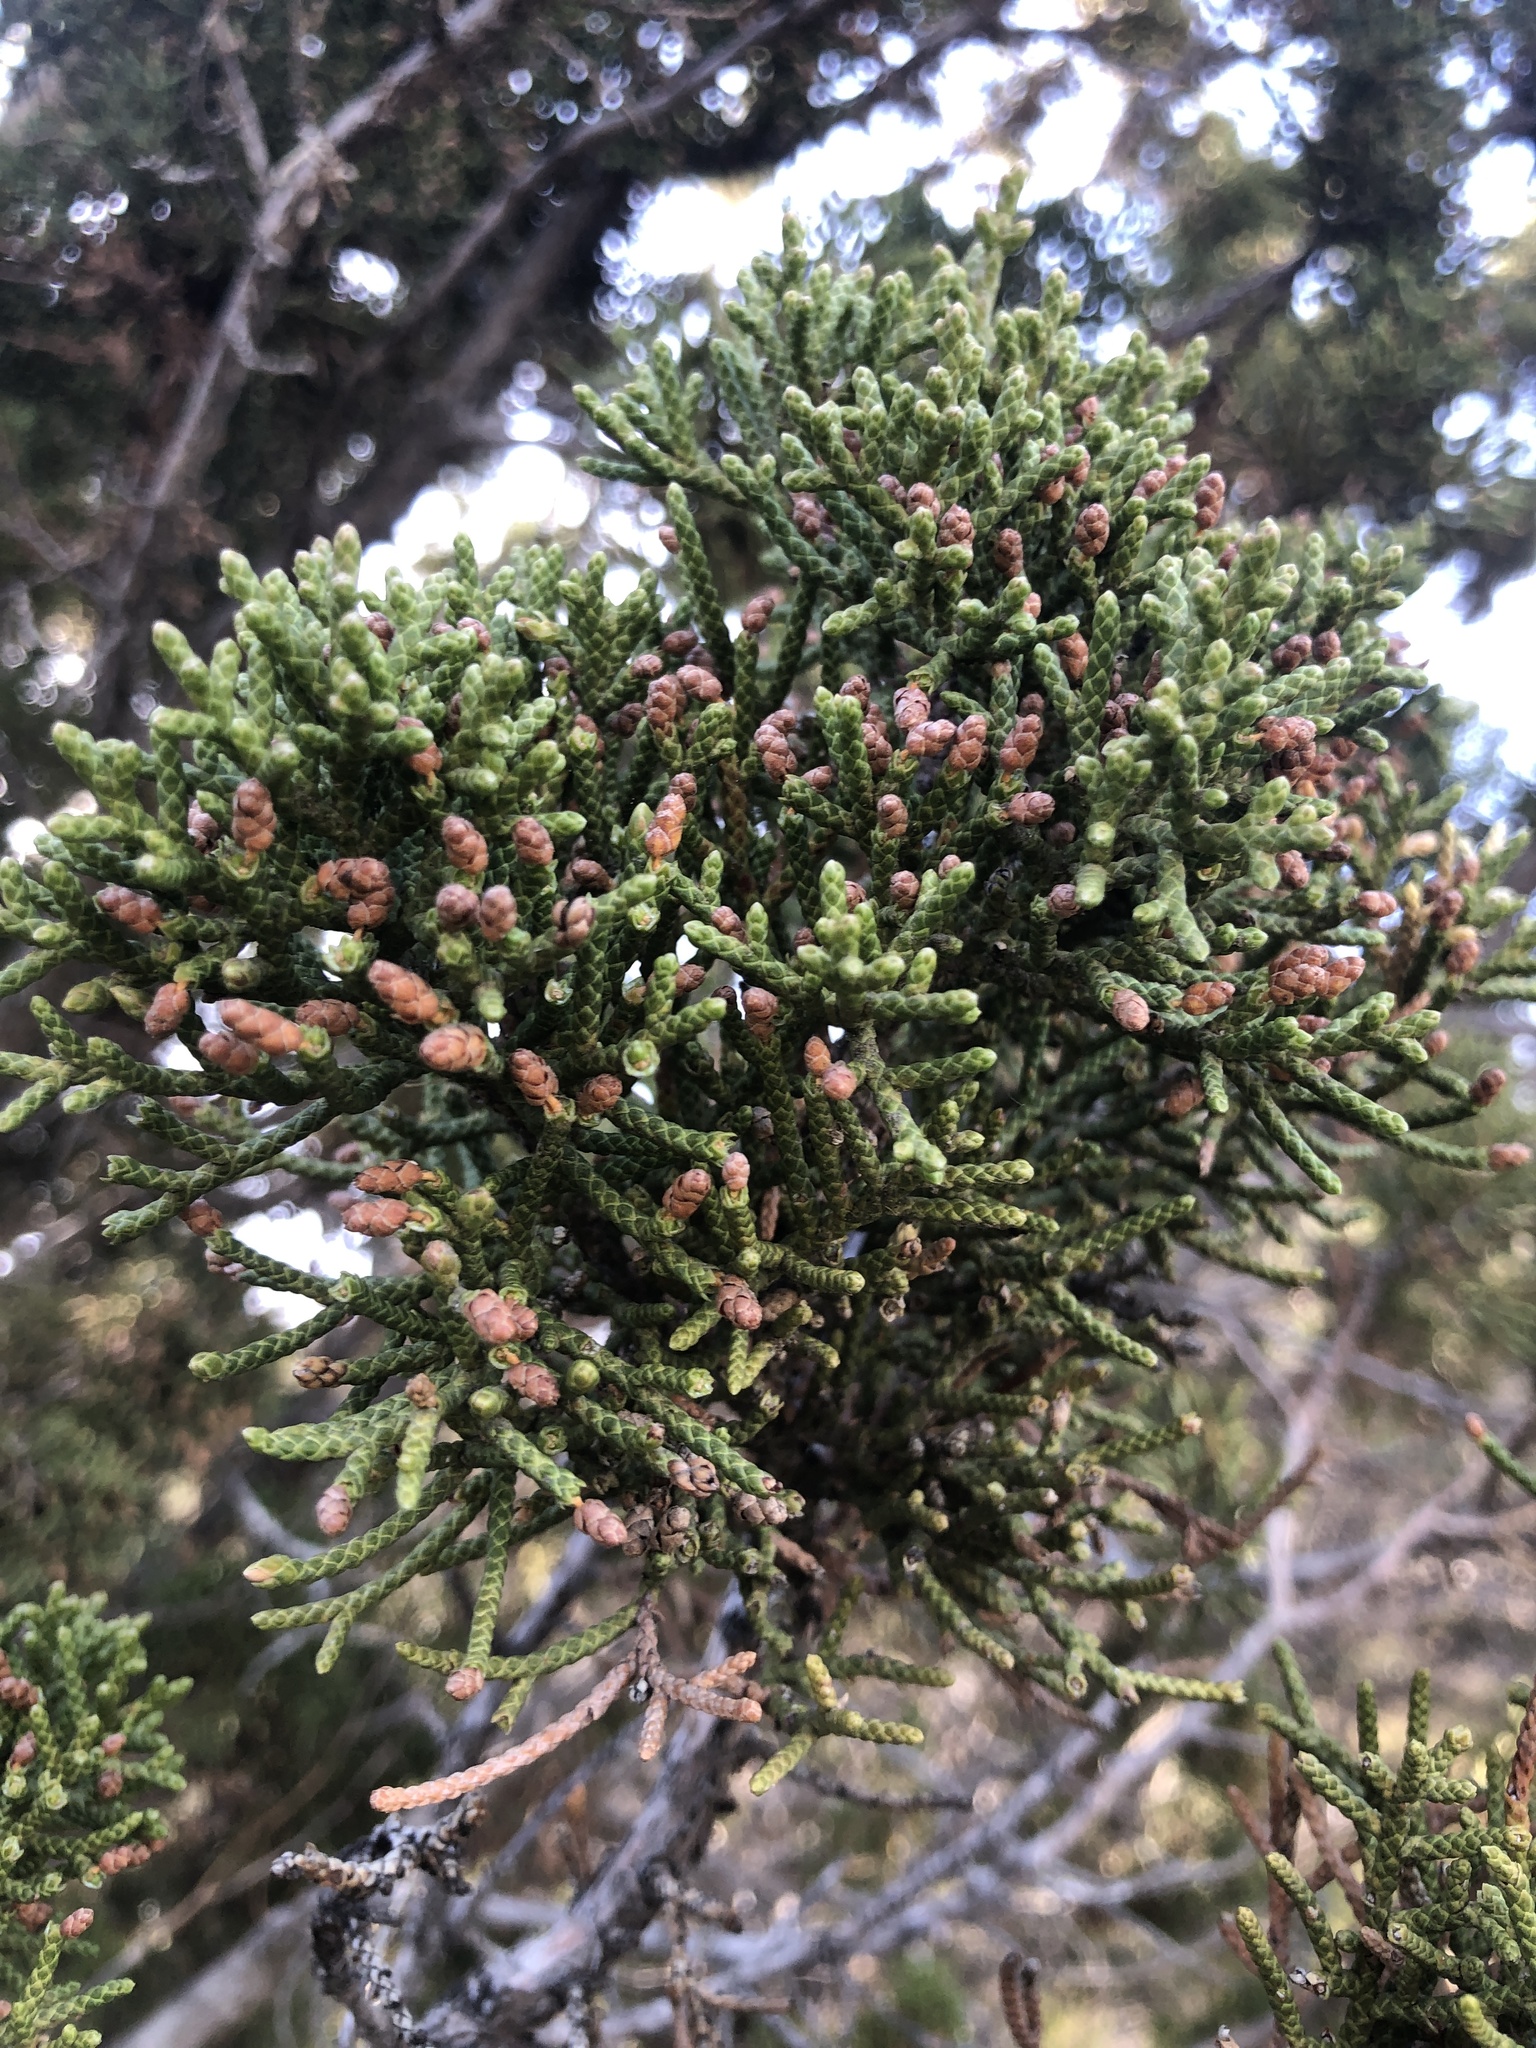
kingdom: Plantae
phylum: Tracheophyta
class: Pinopsida
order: Pinales
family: Cupressaceae
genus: Juniperus
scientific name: Juniperus californica
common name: California juniper
